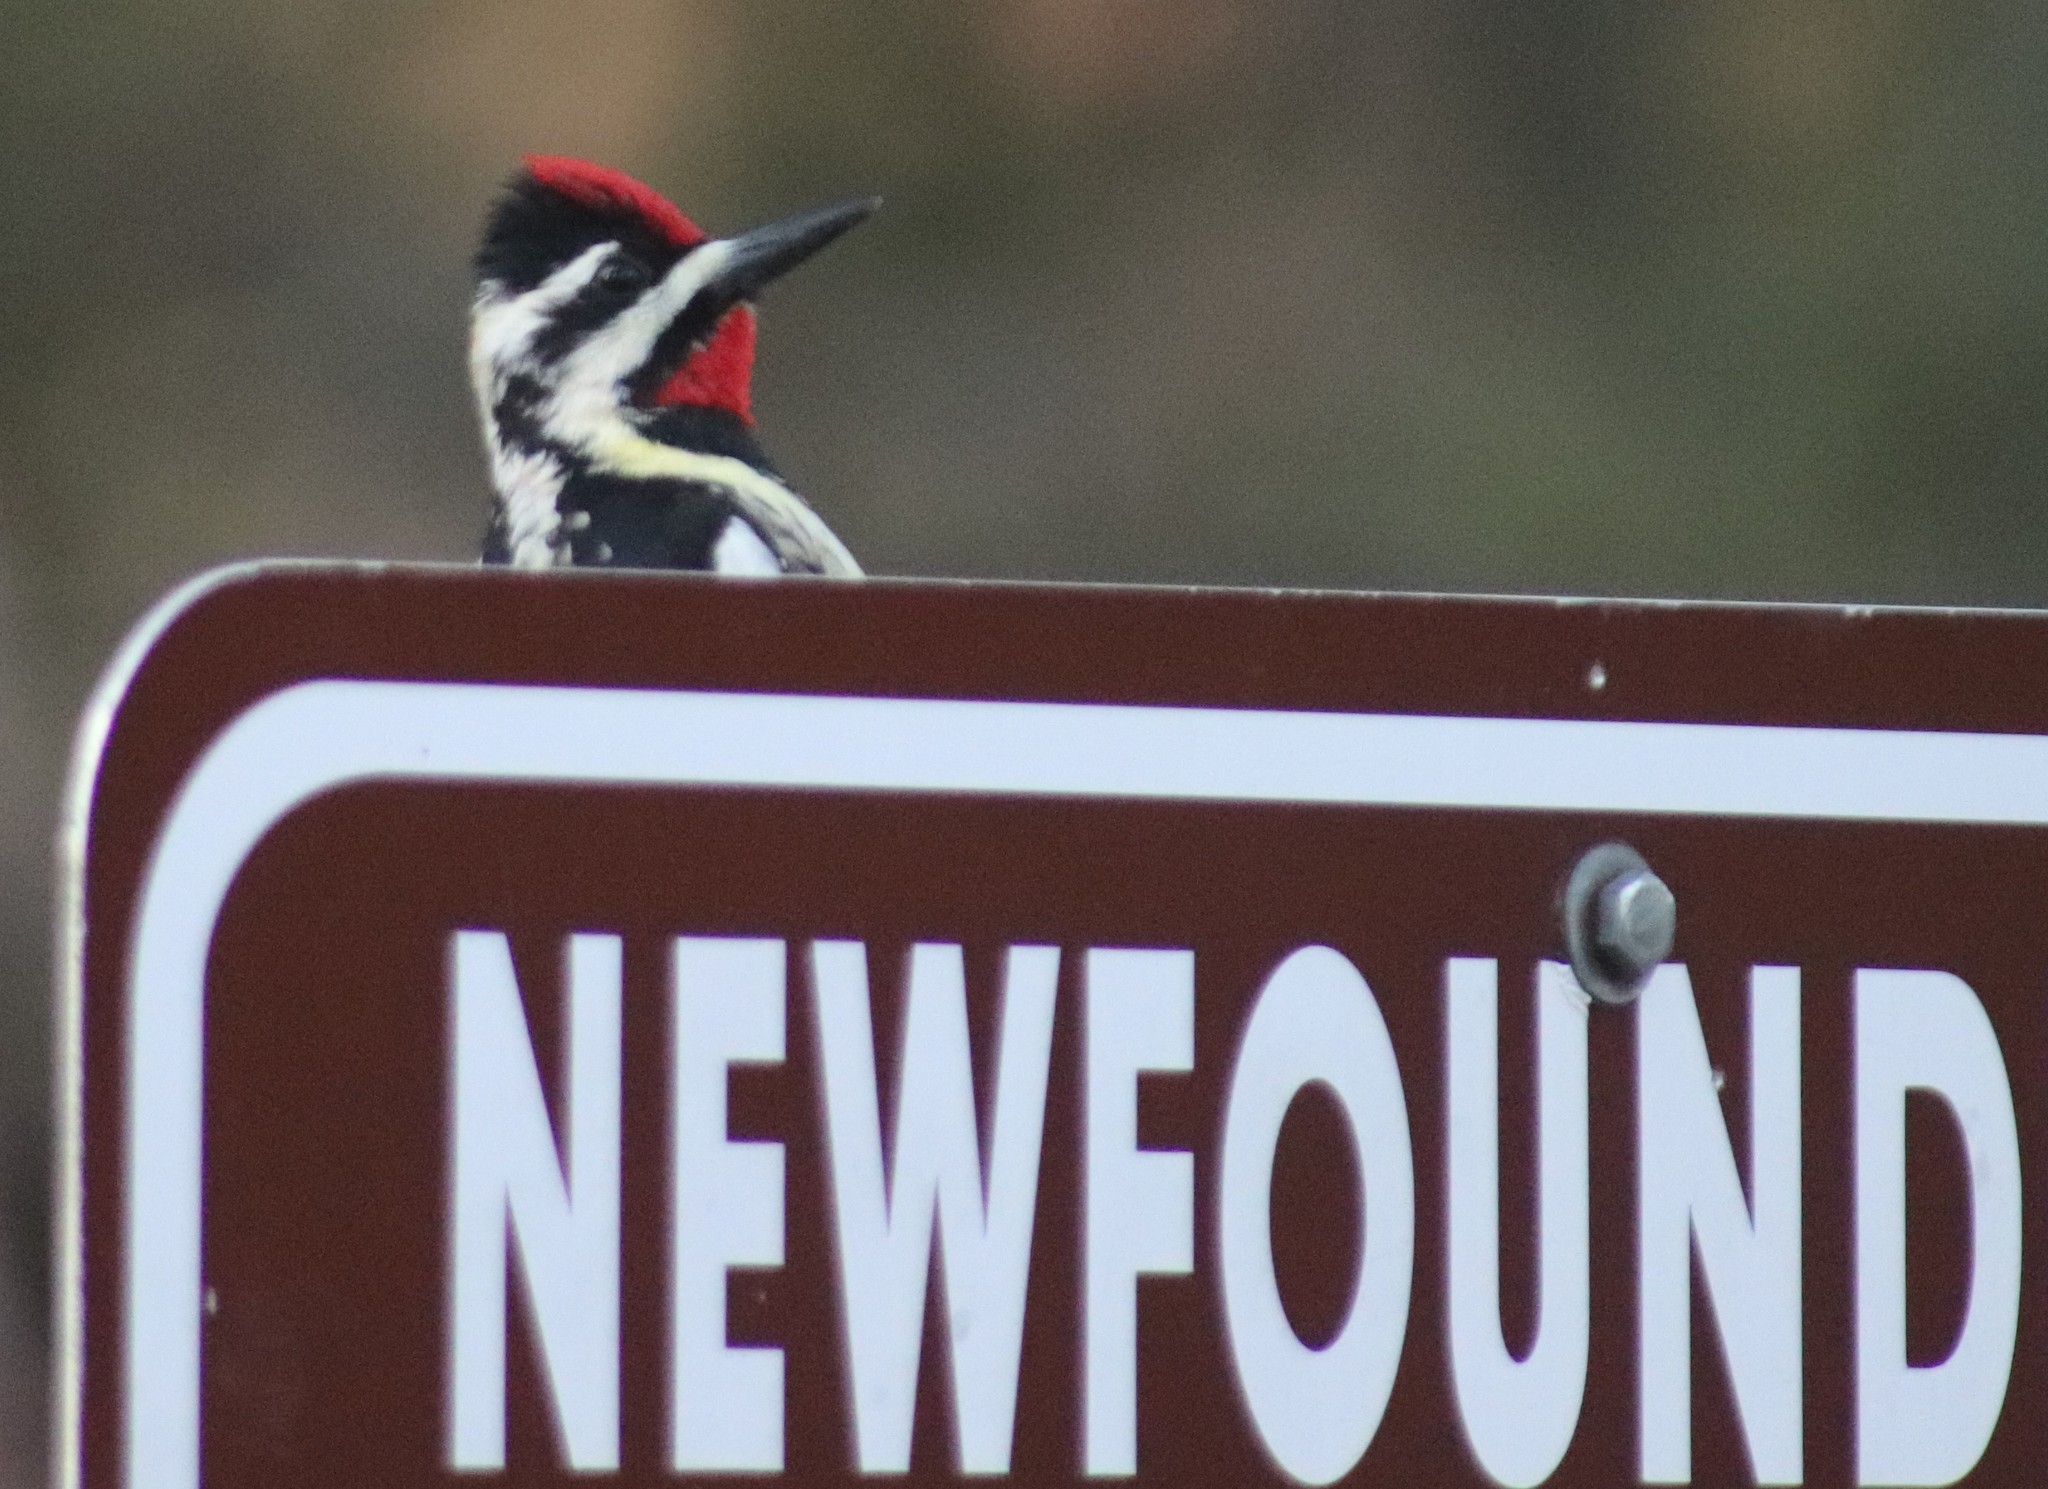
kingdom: Animalia
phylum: Chordata
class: Aves
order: Piciformes
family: Picidae
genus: Sphyrapicus
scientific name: Sphyrapicus varius
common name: Yellow-bellied sapsucker
